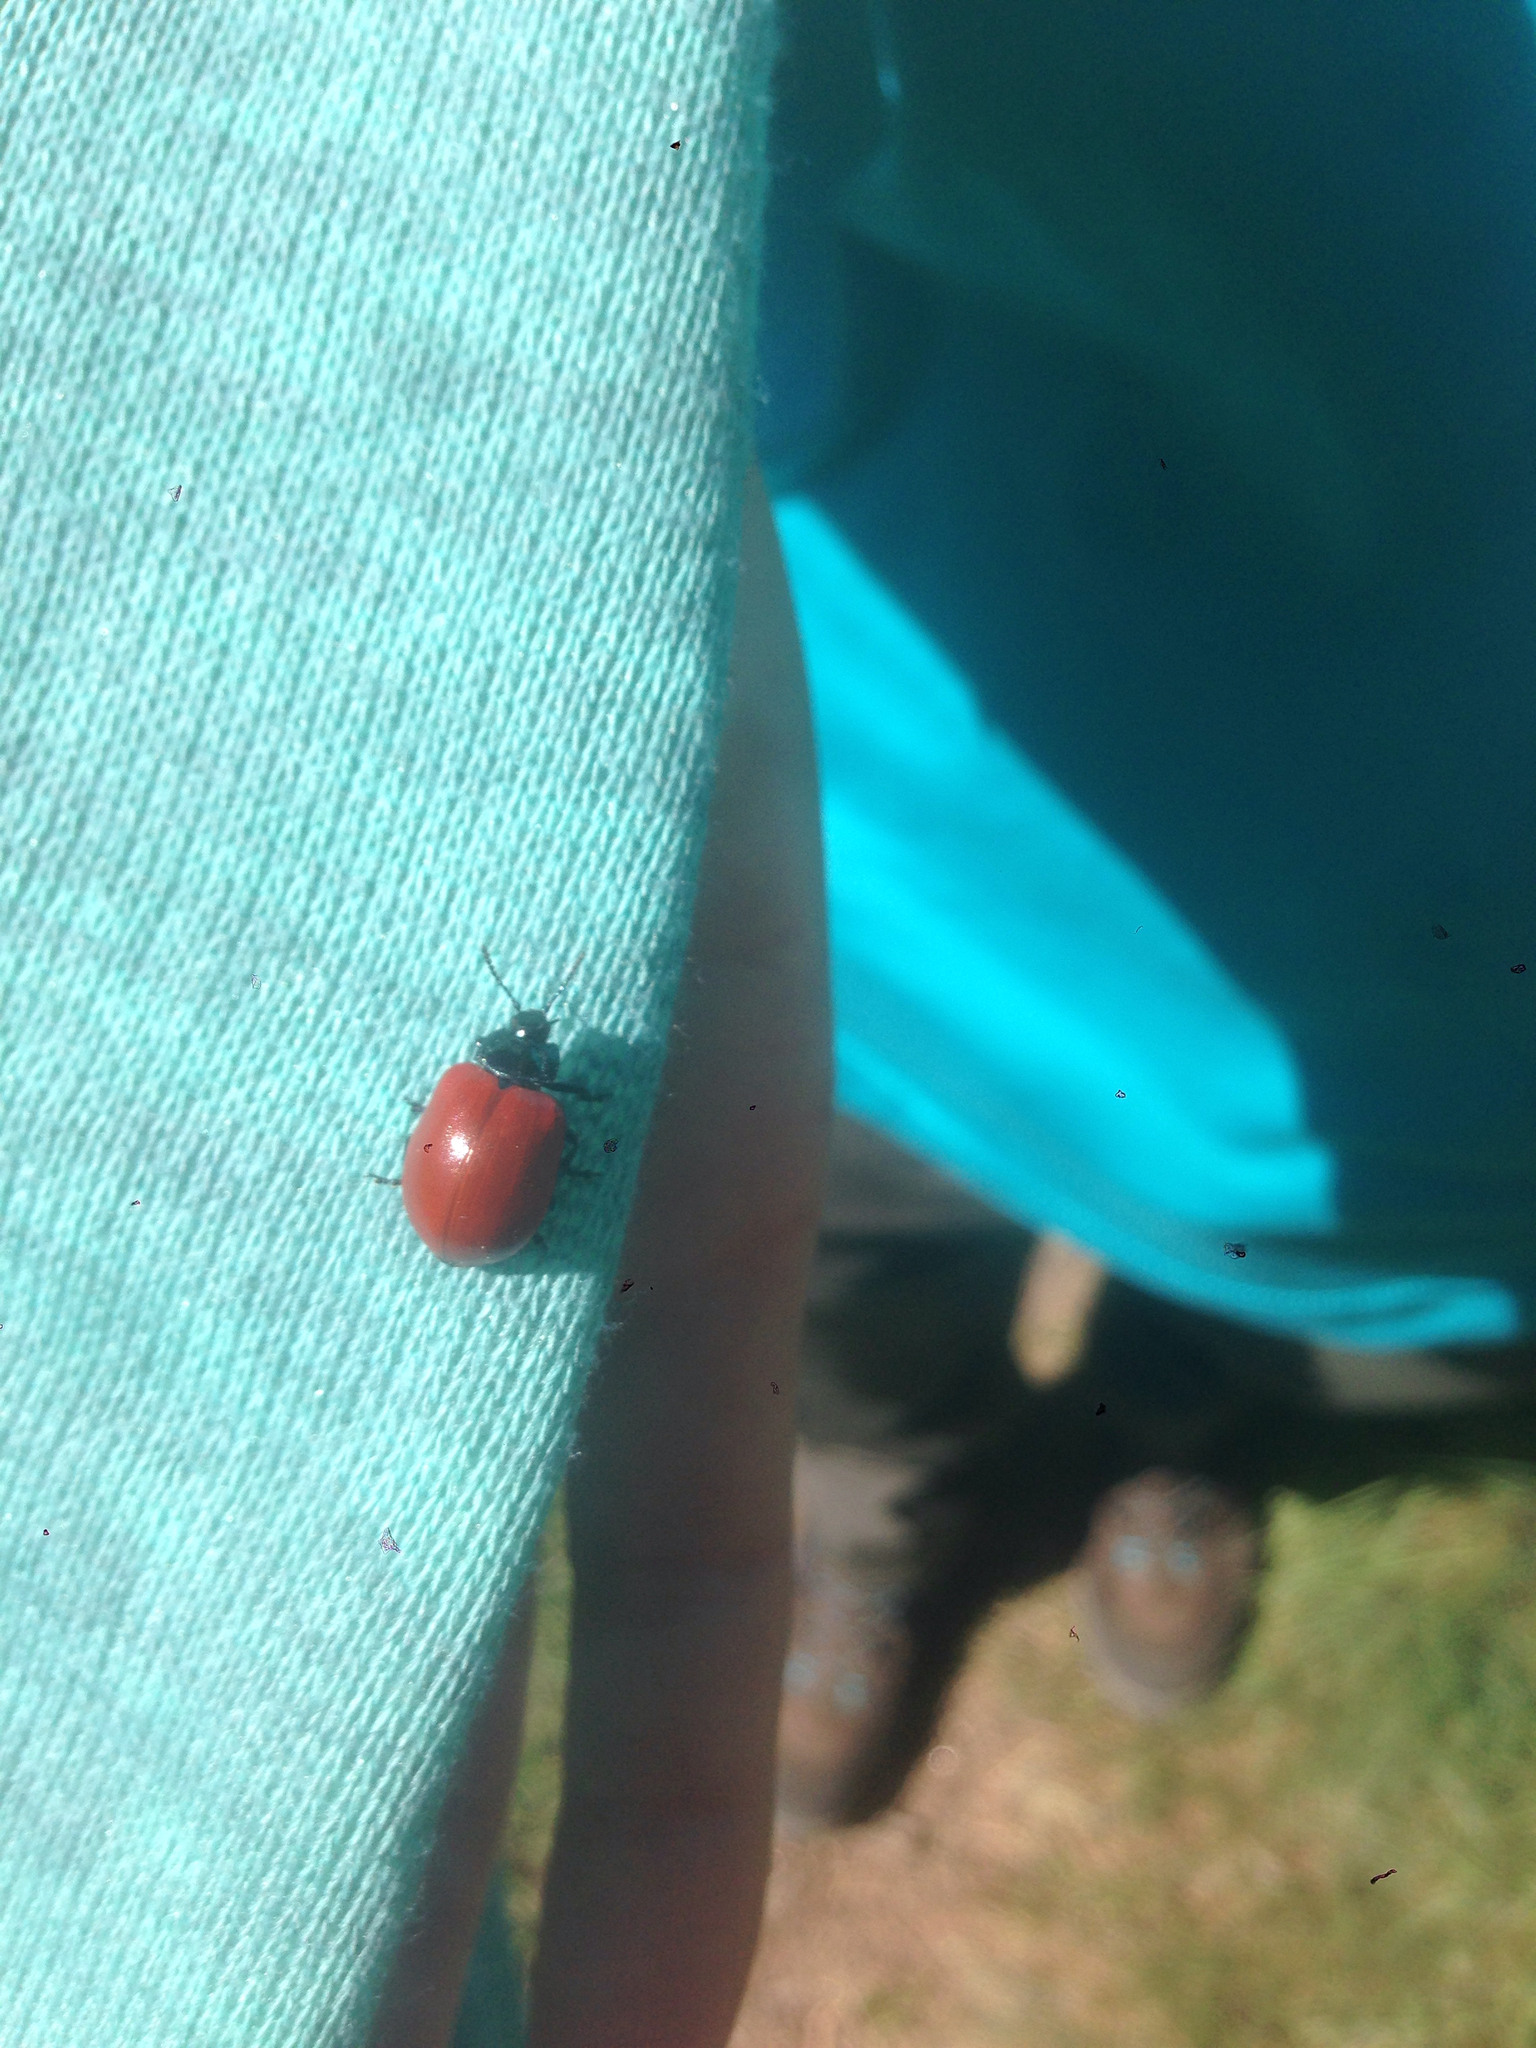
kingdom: Animalia
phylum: Arthropoda
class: Insecta
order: Coleoptera
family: Chrysomelidae
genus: Chrysomela
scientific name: Chrysomela populi
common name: Red poplar leaf beetle
